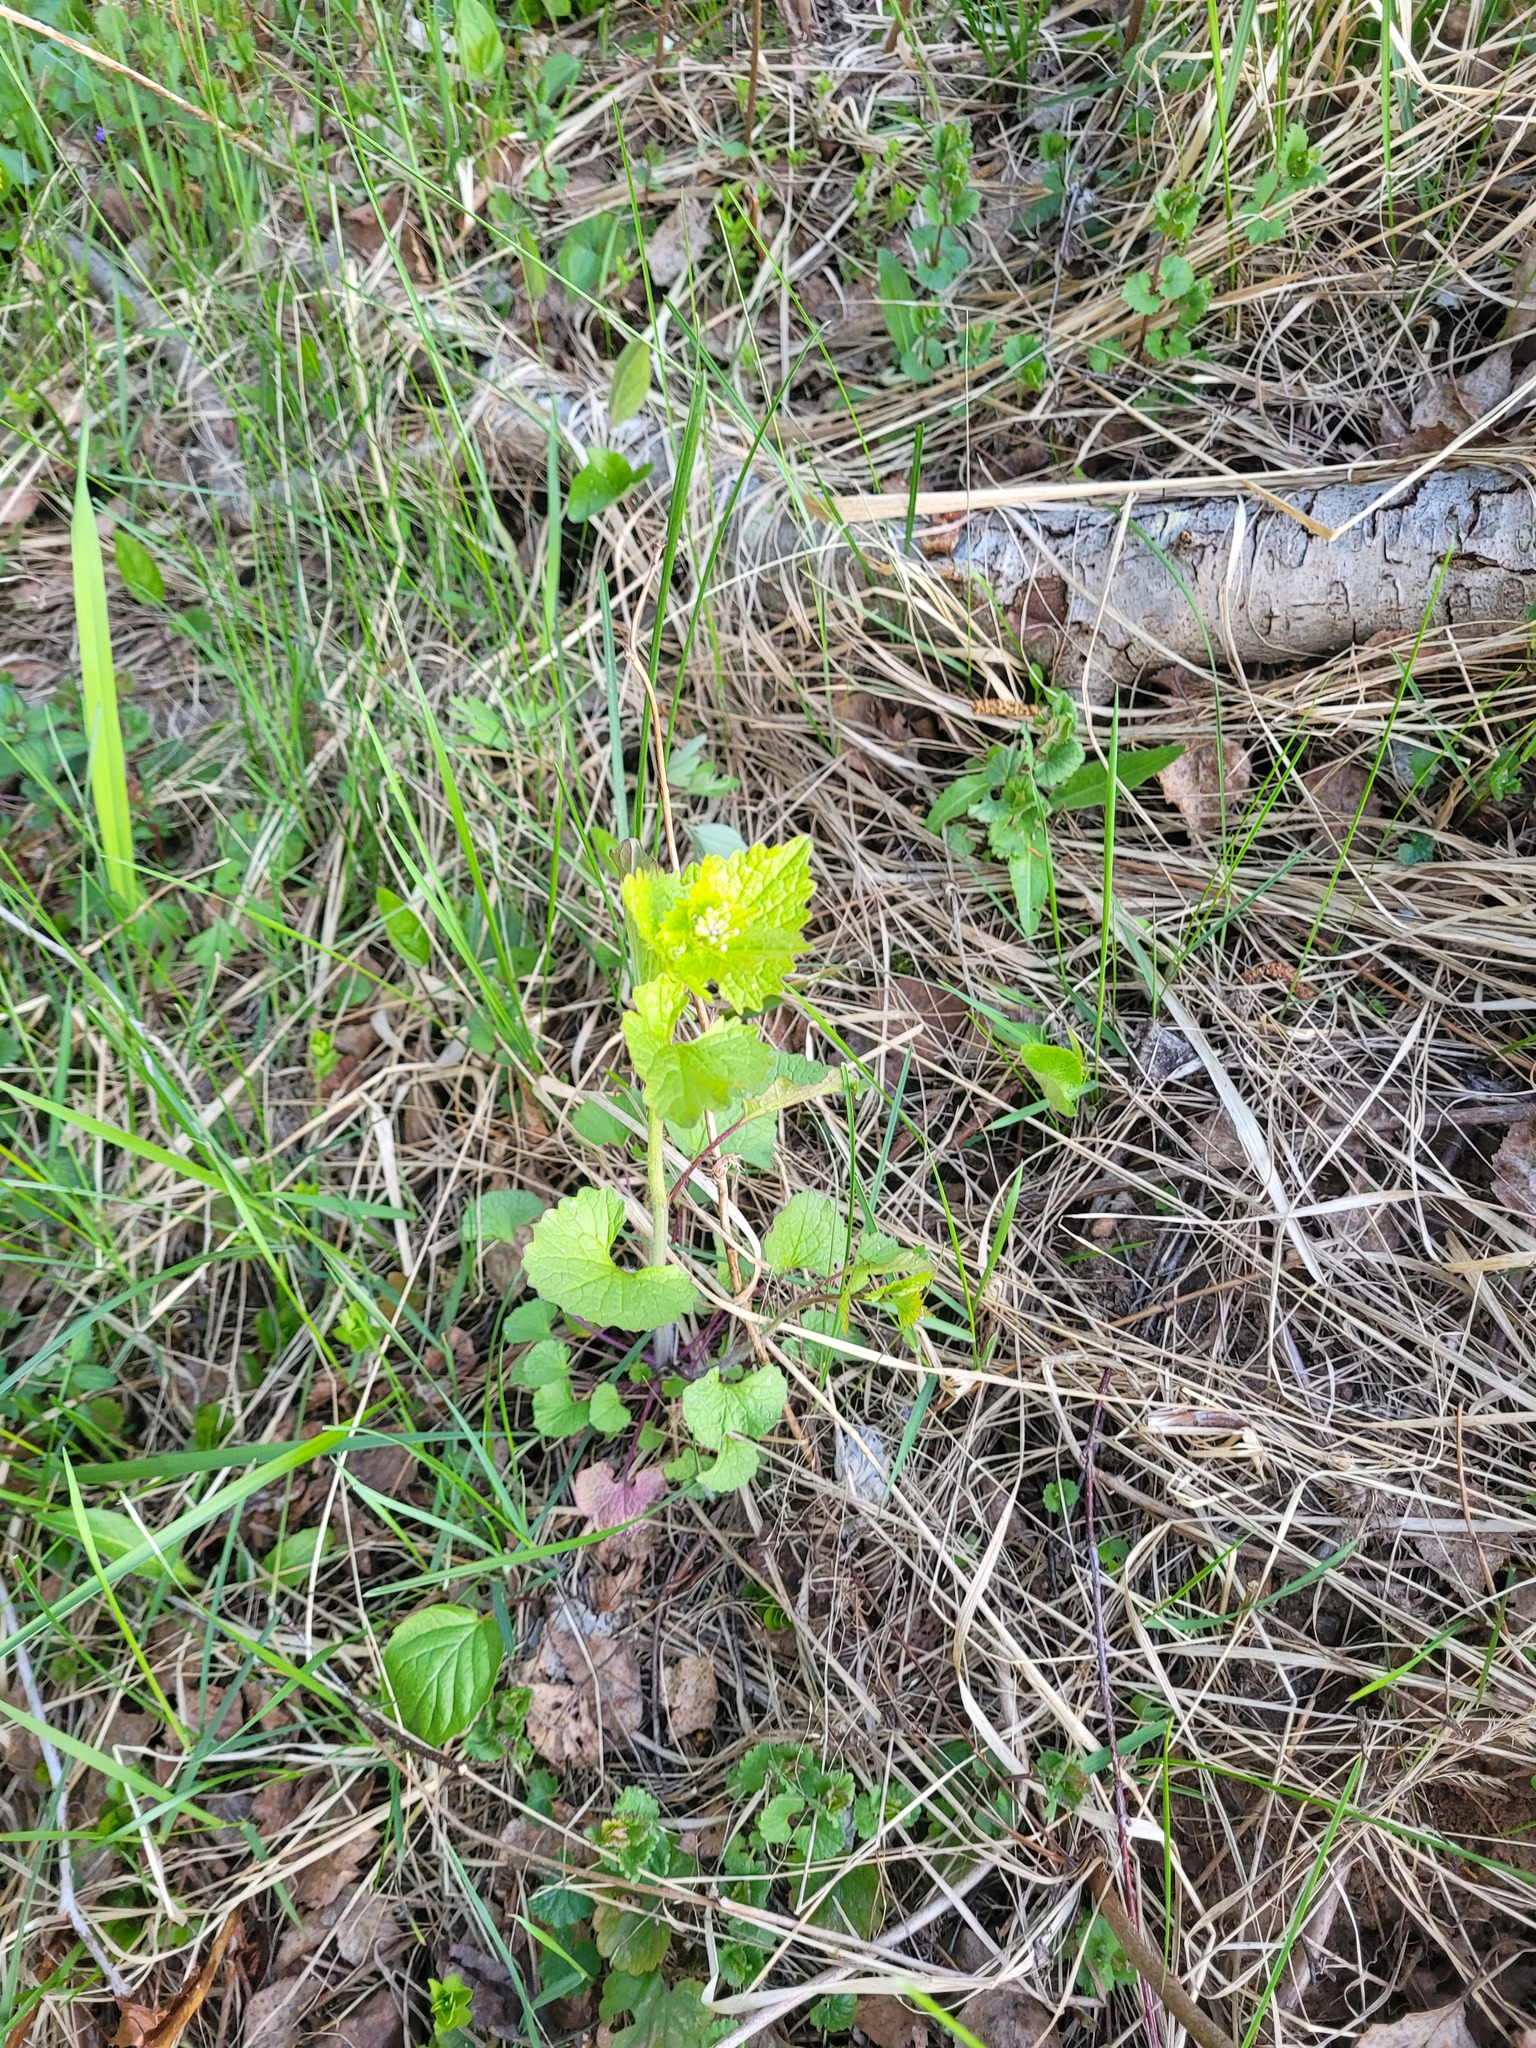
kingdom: Plantae
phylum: Tracheophyta
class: Magnoliopsida
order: Brassicales
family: Brassicaceae
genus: Alliaria
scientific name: Alliaria petiolata
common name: Garlic mustard
